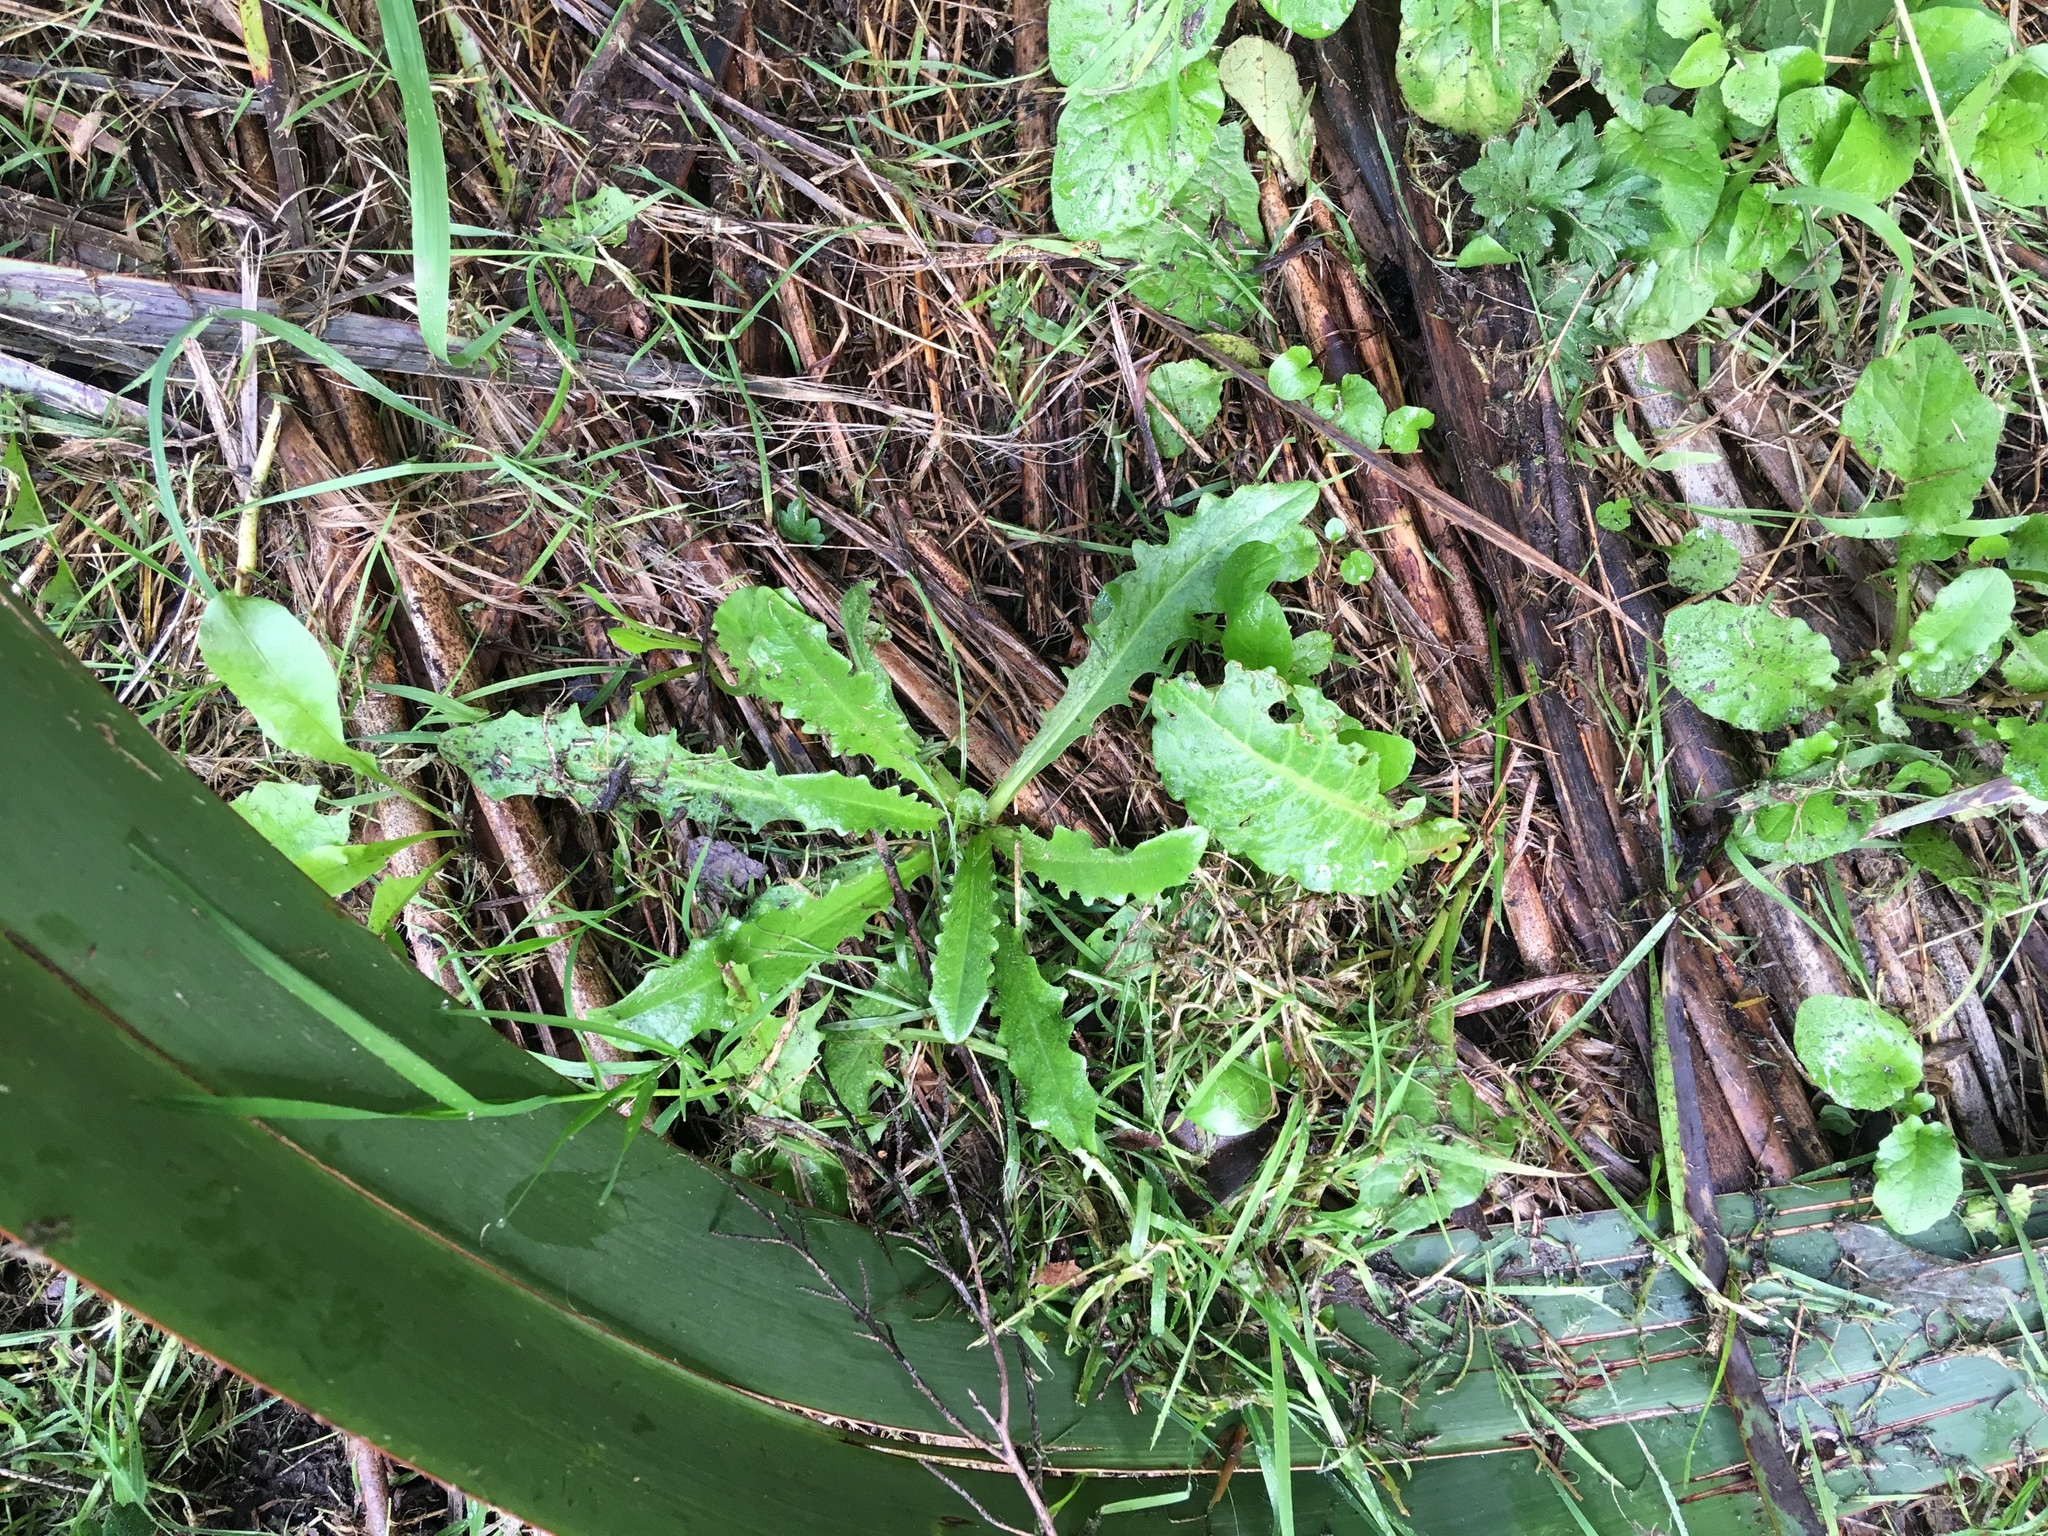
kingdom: Plantae
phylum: Tracheophyta
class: Magnoliopsida
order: Asterales
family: Asteraceae
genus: Hypochaeris
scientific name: Hypochaeris radicata
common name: Flatweed
